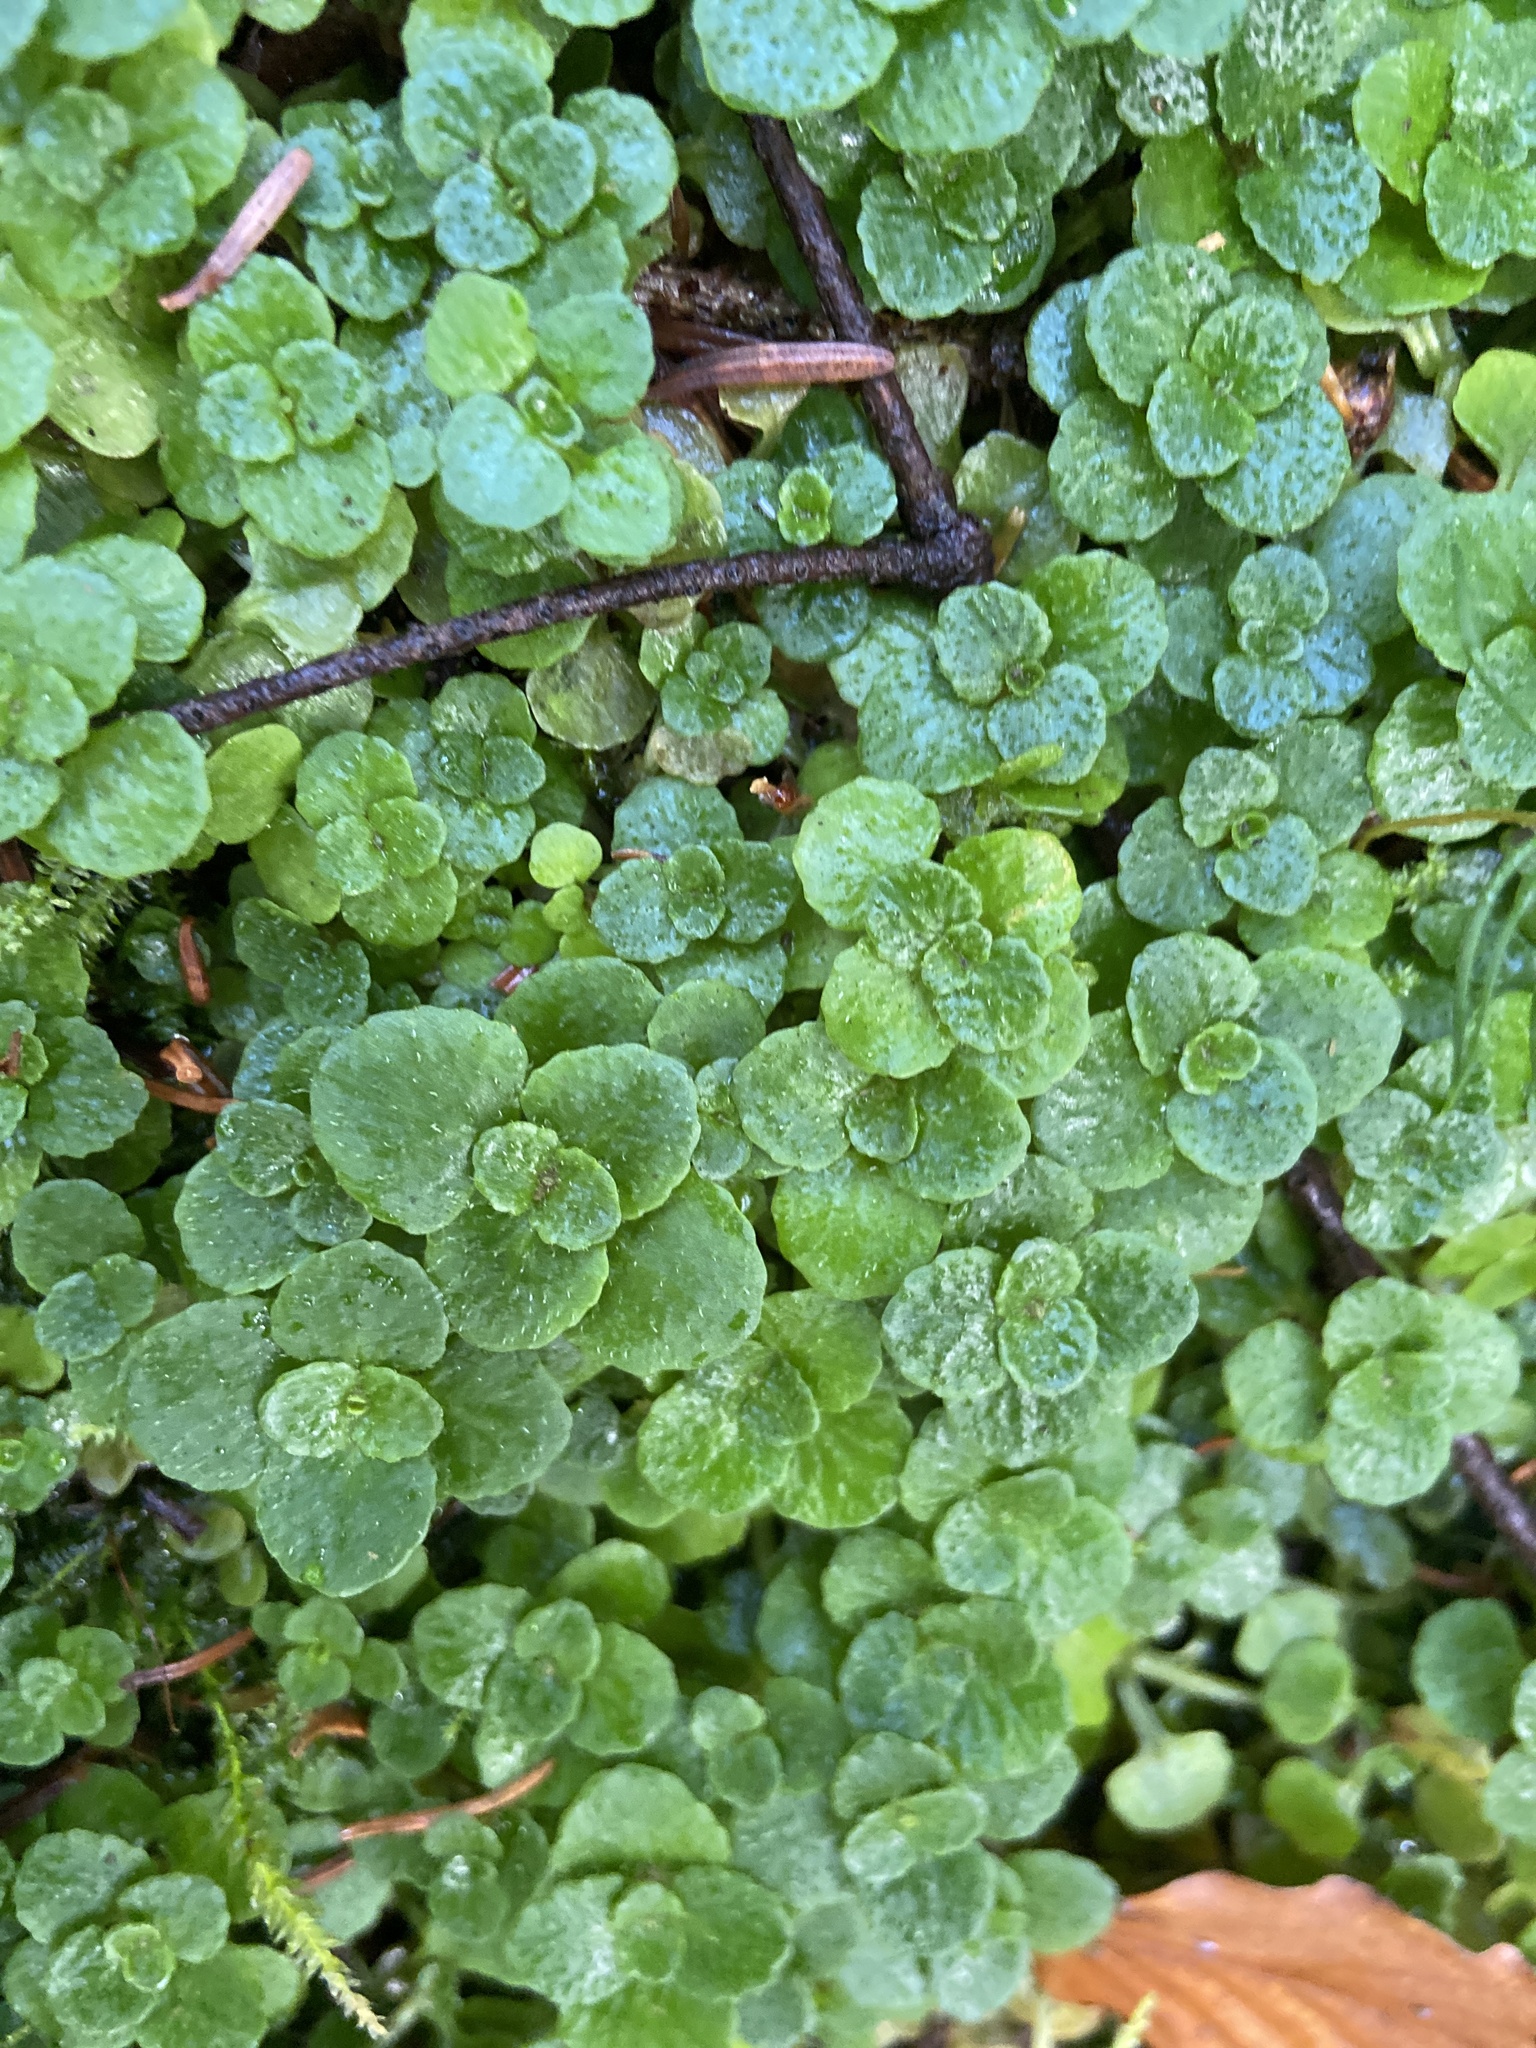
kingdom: Plantae
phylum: Tracheophyta
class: Magnoliopsida
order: Saxifragales
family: Saxifragaceae
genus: Chrysosplenium
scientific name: Chrysosplenium oppositifolium
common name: Opposite-leaved golden-saxifrage
